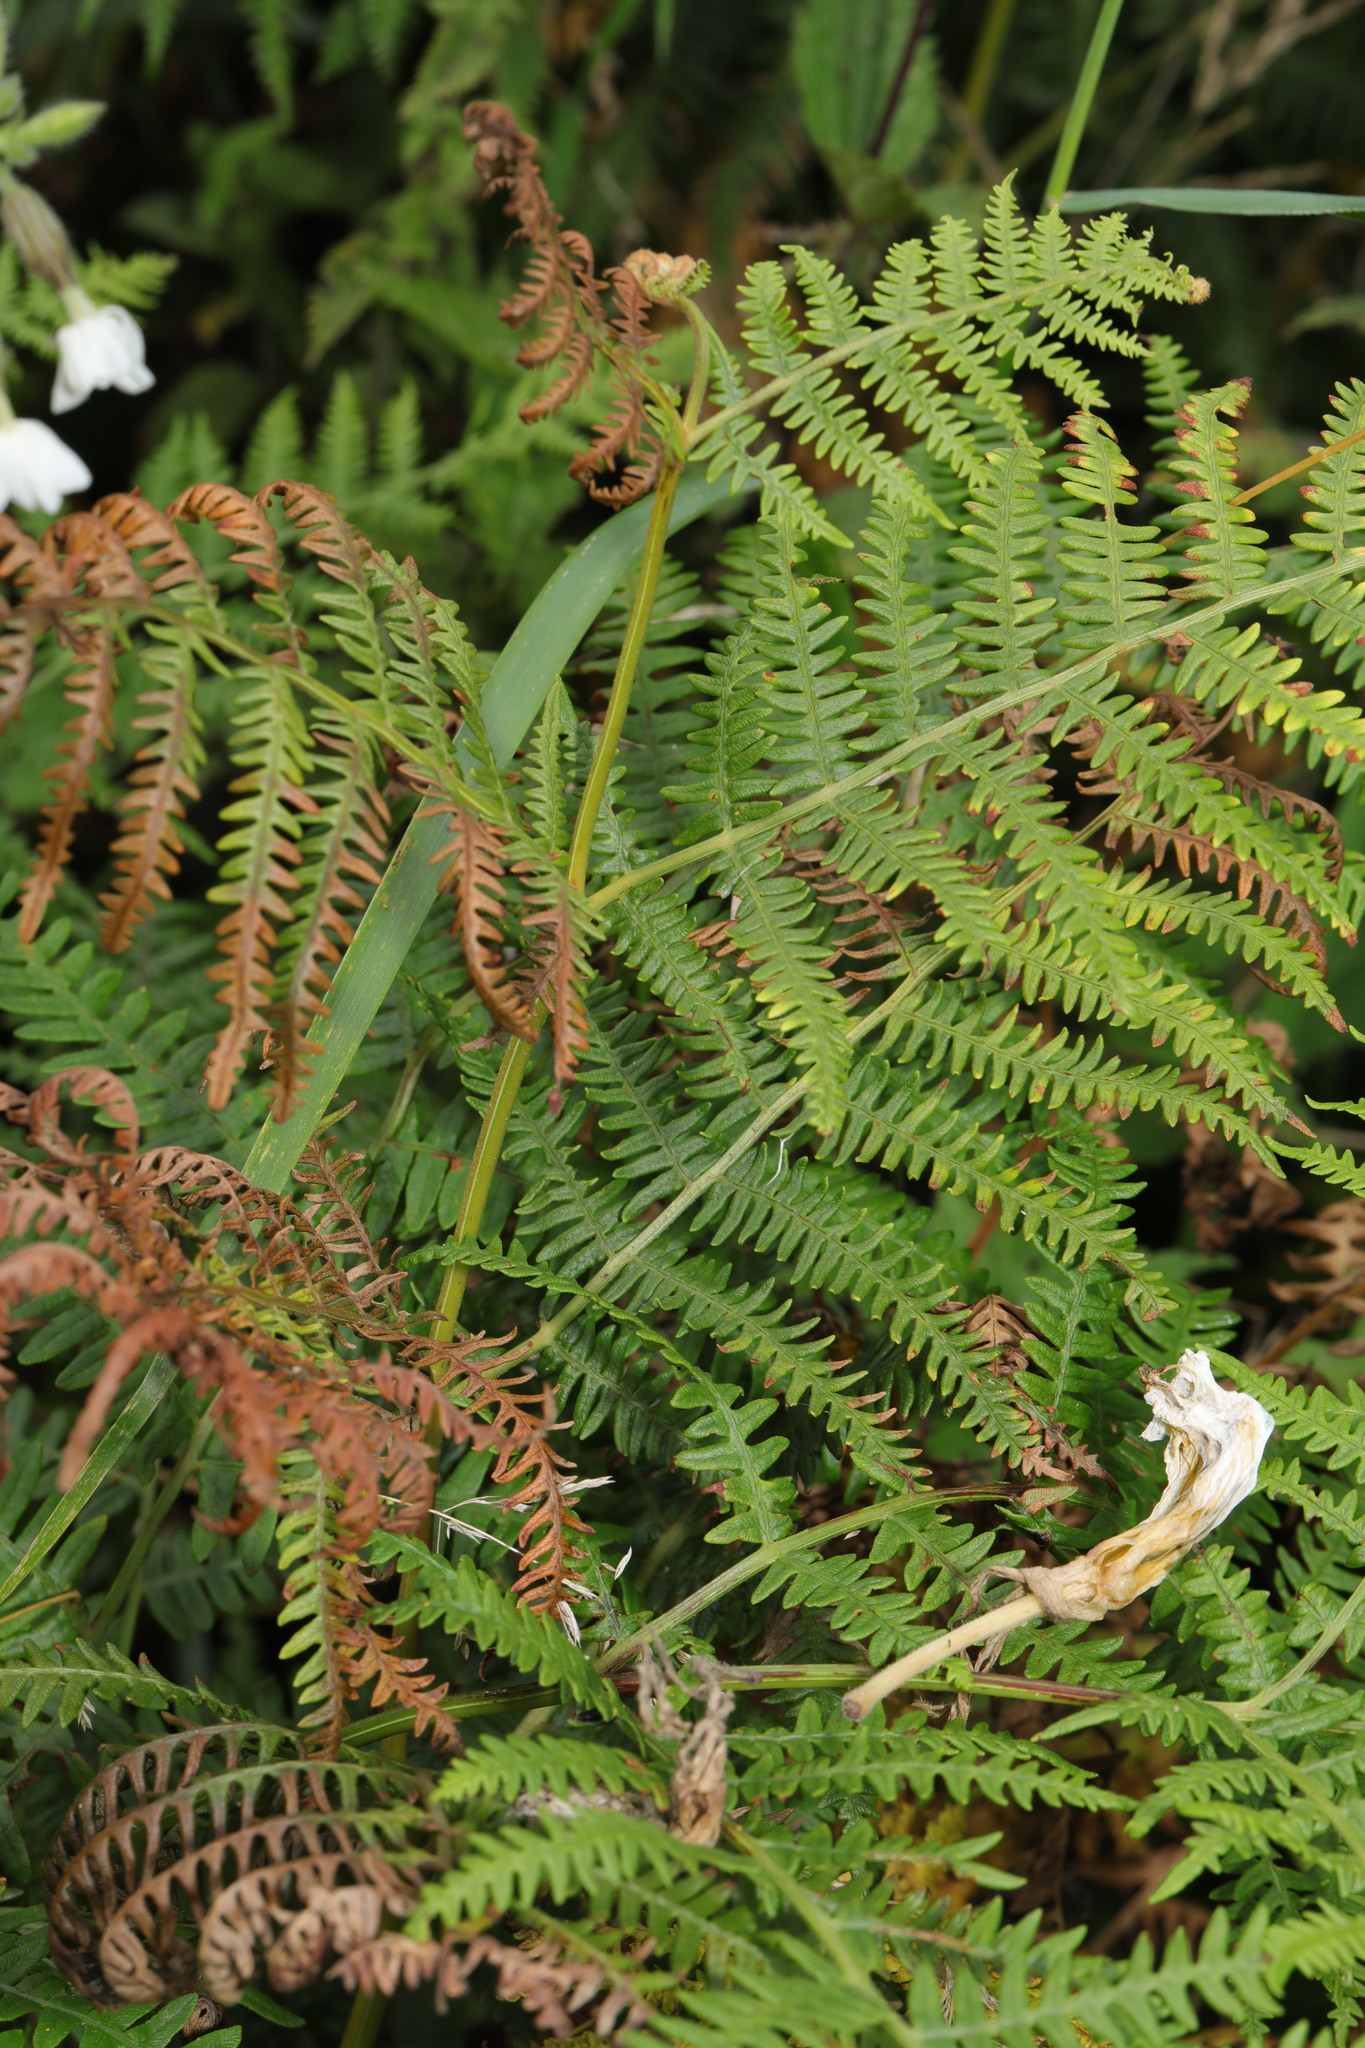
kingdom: Plantae
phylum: Tracheophyta
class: Polypodiopsida
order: Polypodiales
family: Dennstaedtiaceae
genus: Pteridium
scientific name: Pteridium aquilinum
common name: Bracken
